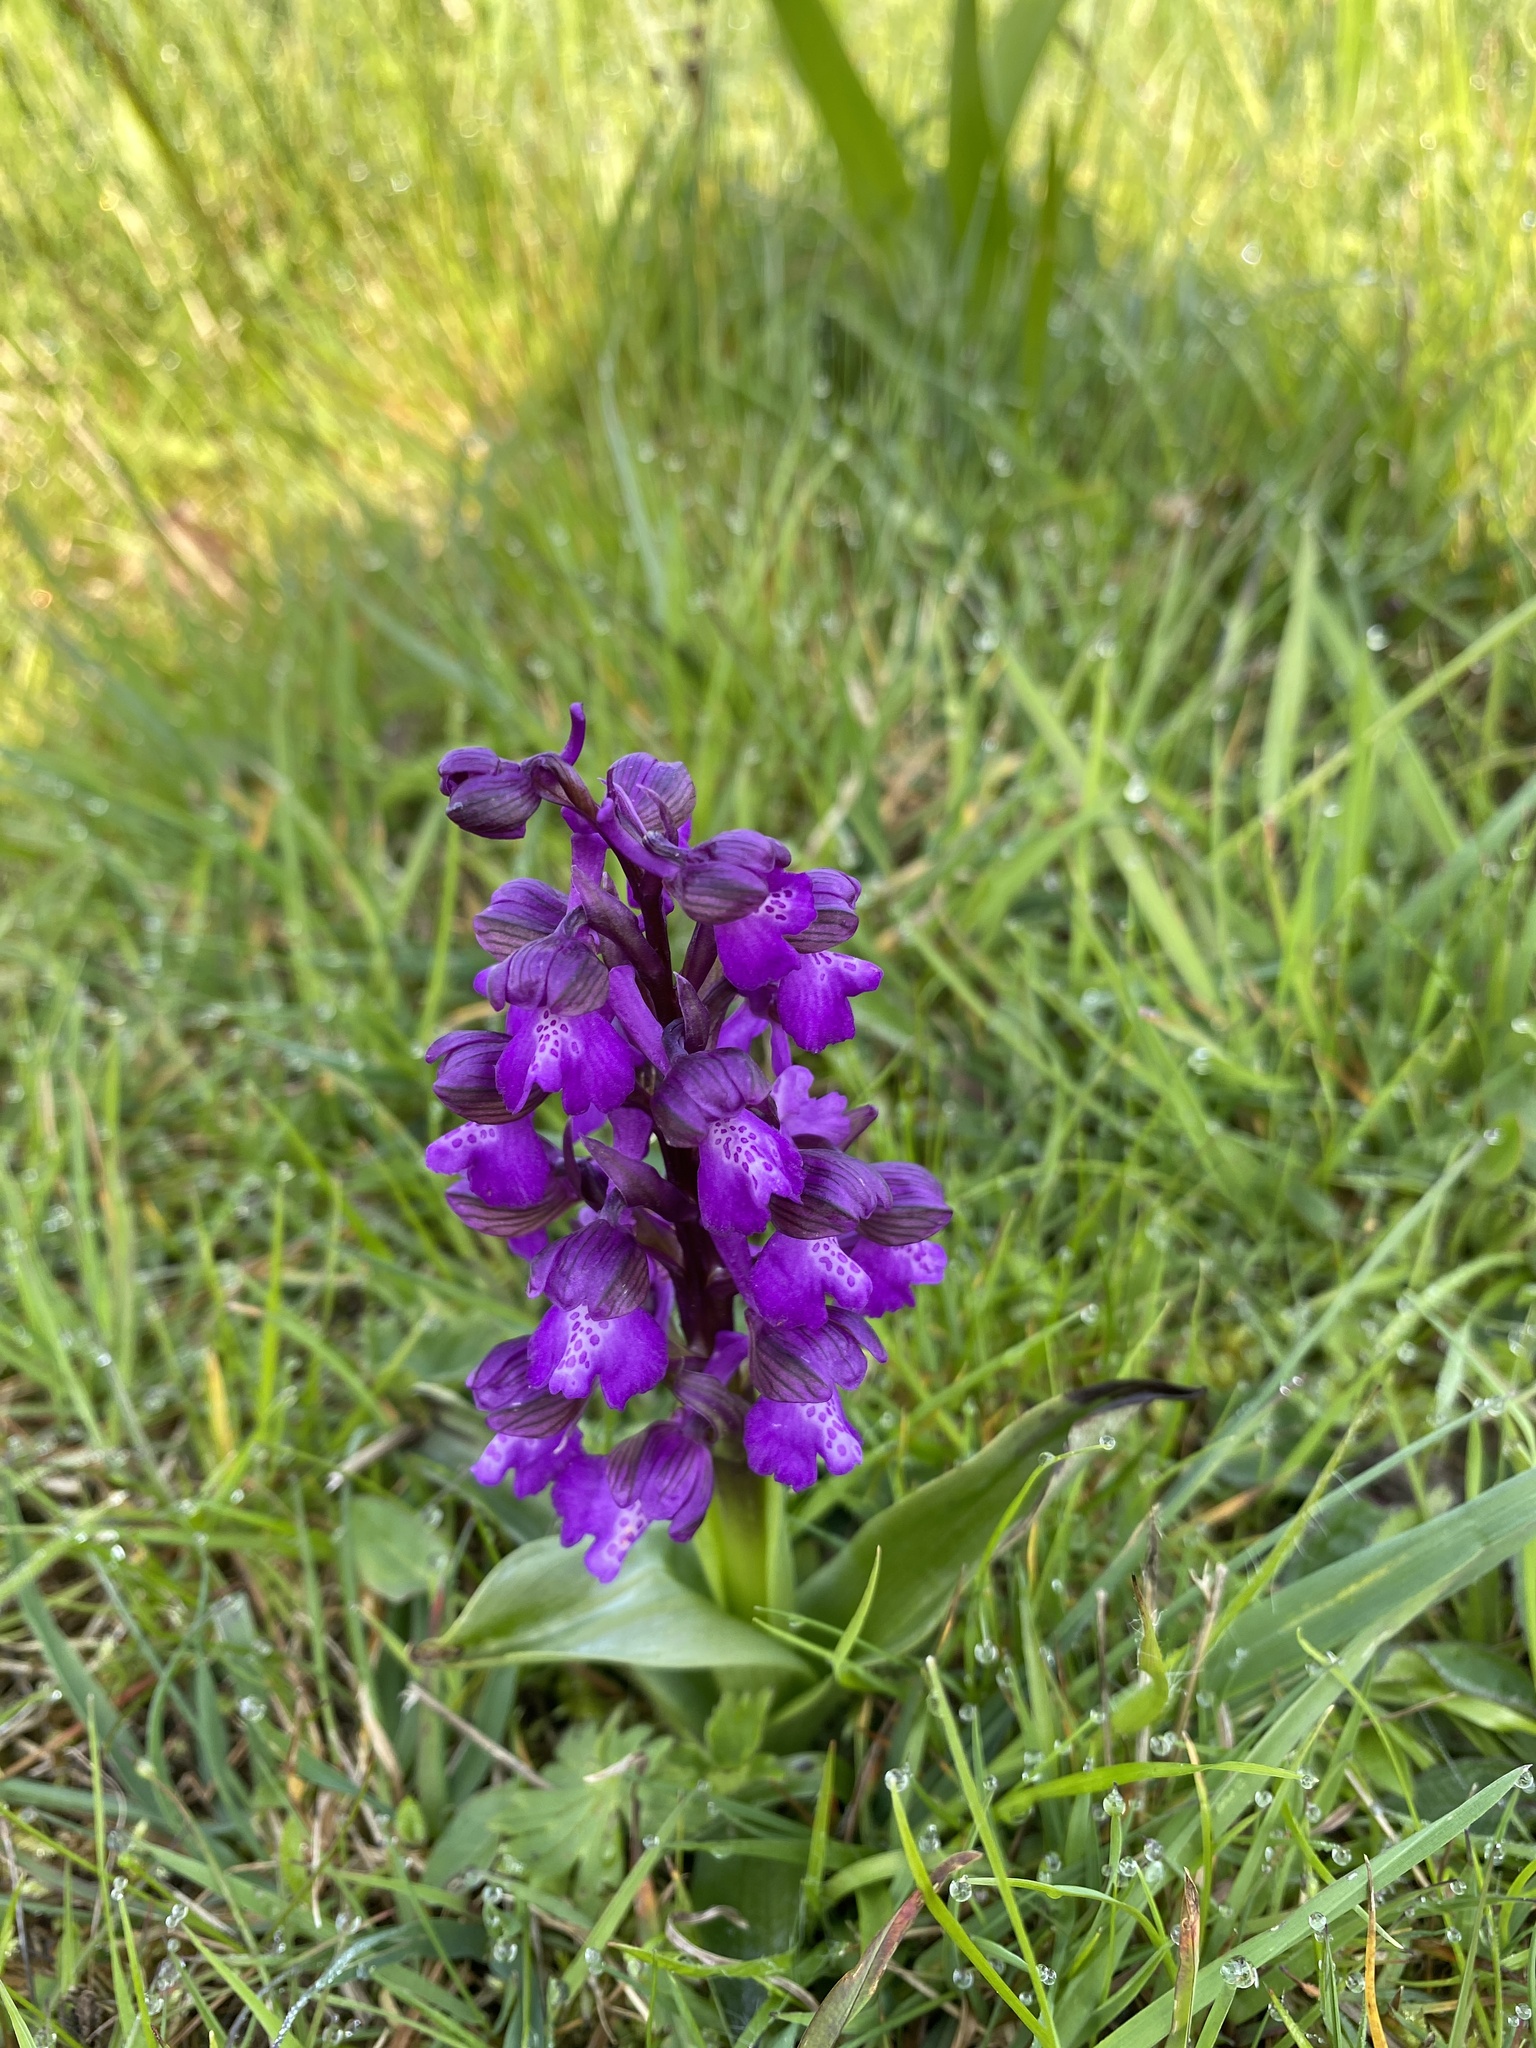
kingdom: Plantae
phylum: Tracheophyta
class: Liliopsida
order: Asparagales
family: Orchidaceae
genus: Anacamptis
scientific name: Anacamptis morio
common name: Green-winged orchid
